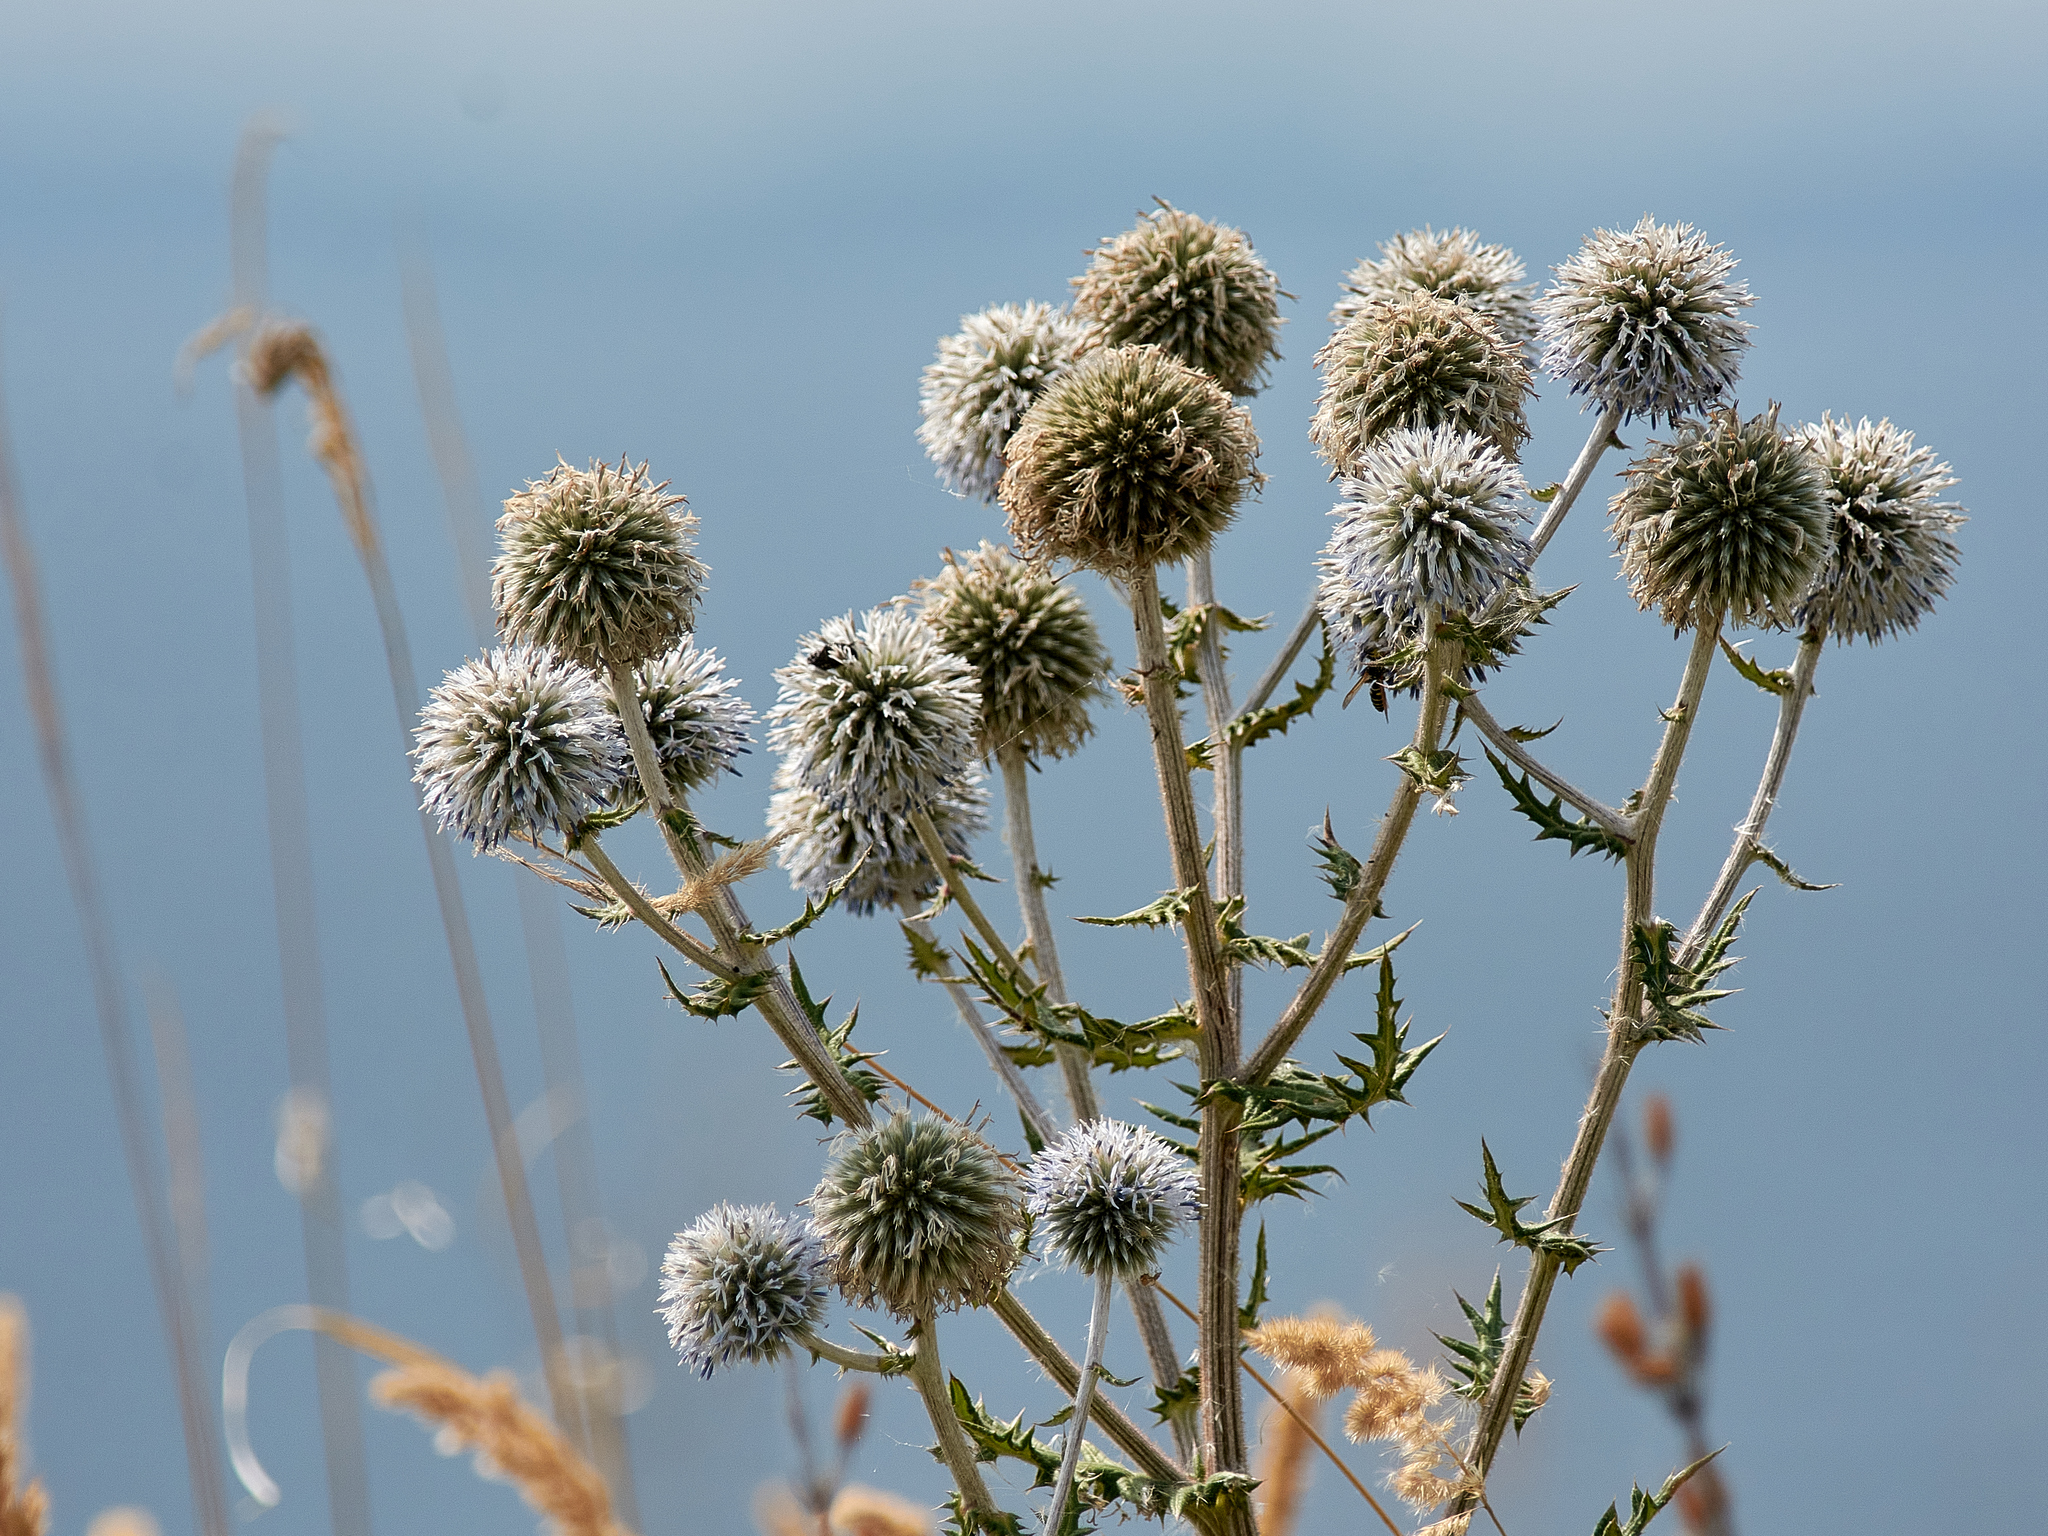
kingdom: Plantae
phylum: Tracheophyta
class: Magnoliopsida
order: Asterales
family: Asteraceae
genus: Echinops
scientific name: Echinops sphaerocephalus
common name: Glandular globe-thistle
